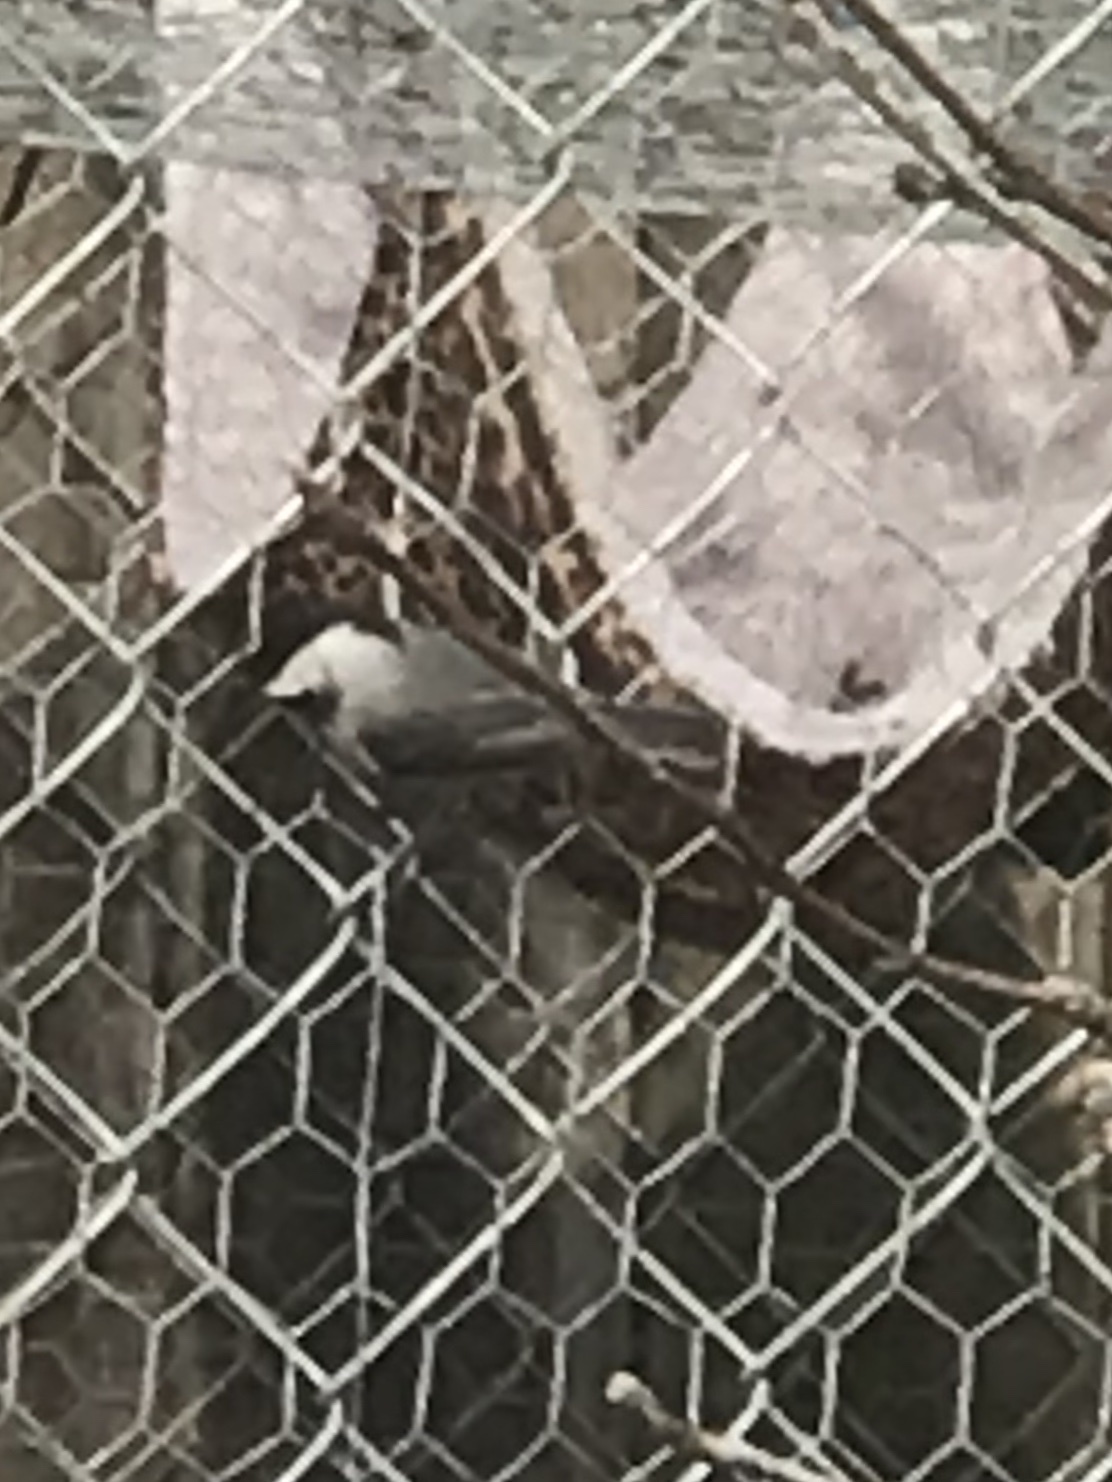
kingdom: Animalia
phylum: Chordata
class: Aves
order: Passeriformes
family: Paridae
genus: Poecile
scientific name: Poecile carolinensis
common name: Carolina chickadee
